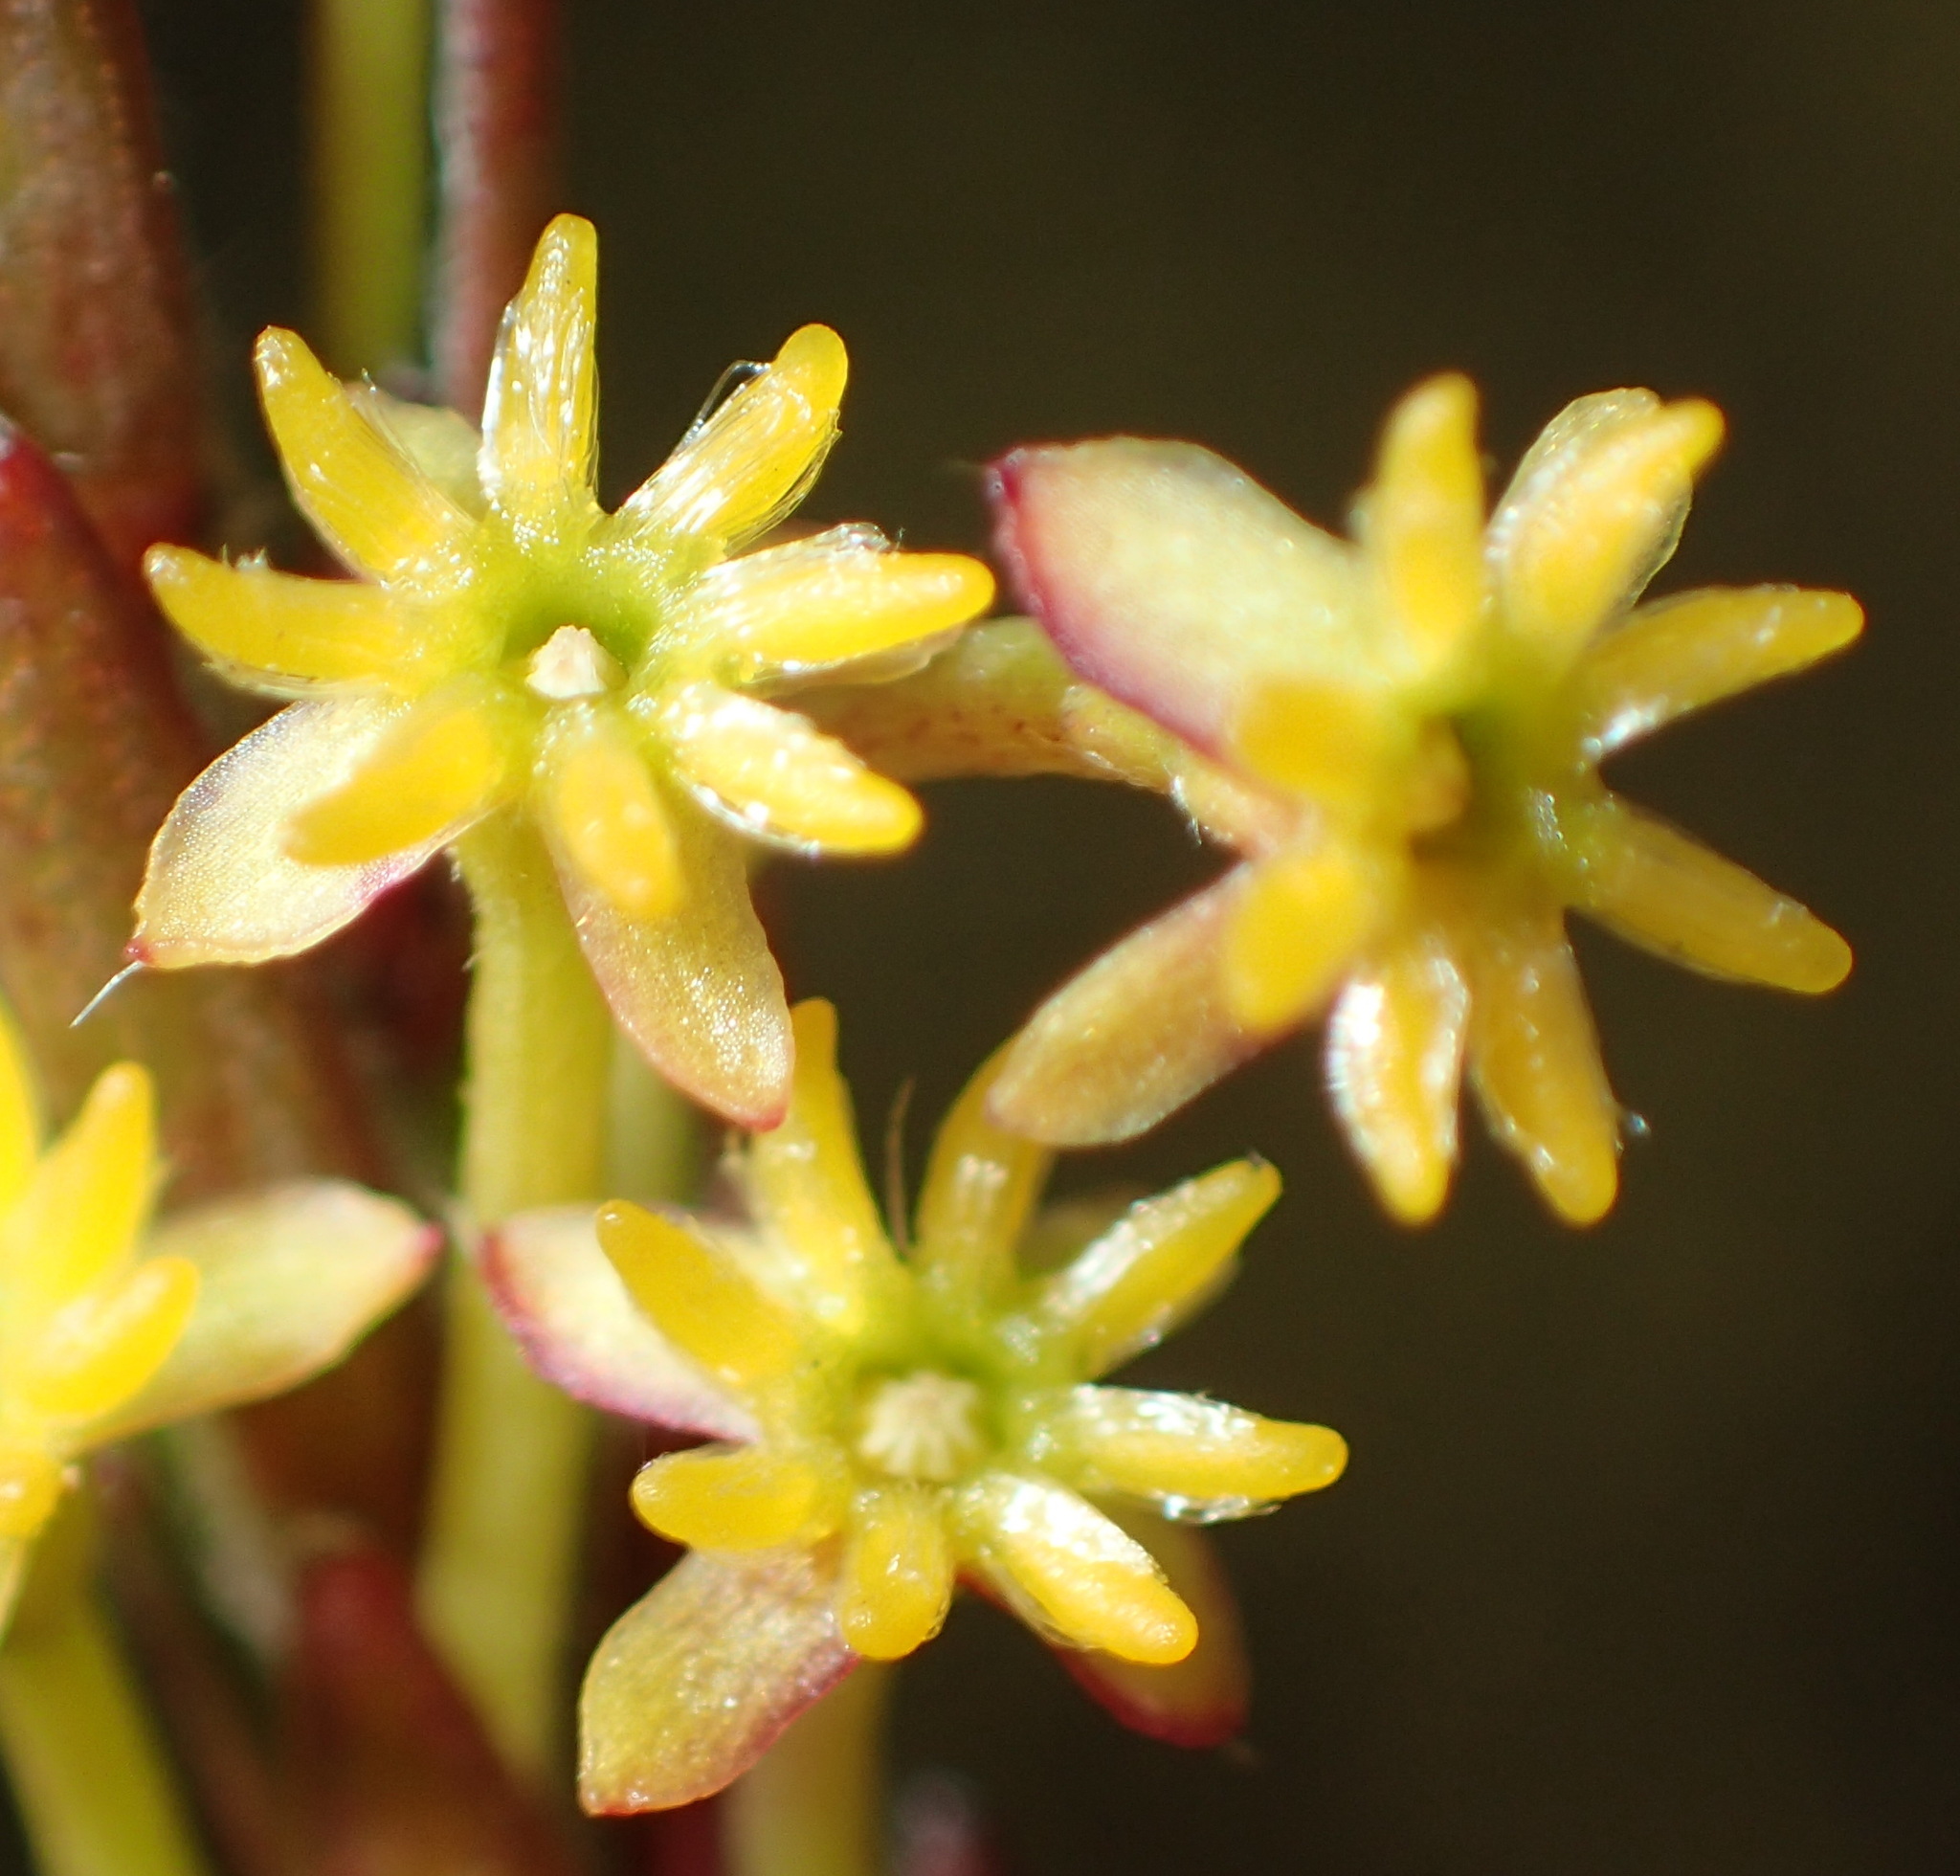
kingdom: Plantae
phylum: Tracheophyta
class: Magnoliopsida
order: Malvales
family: Thymelaeaceae
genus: Struthiola
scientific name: Struthiola eckloniana
